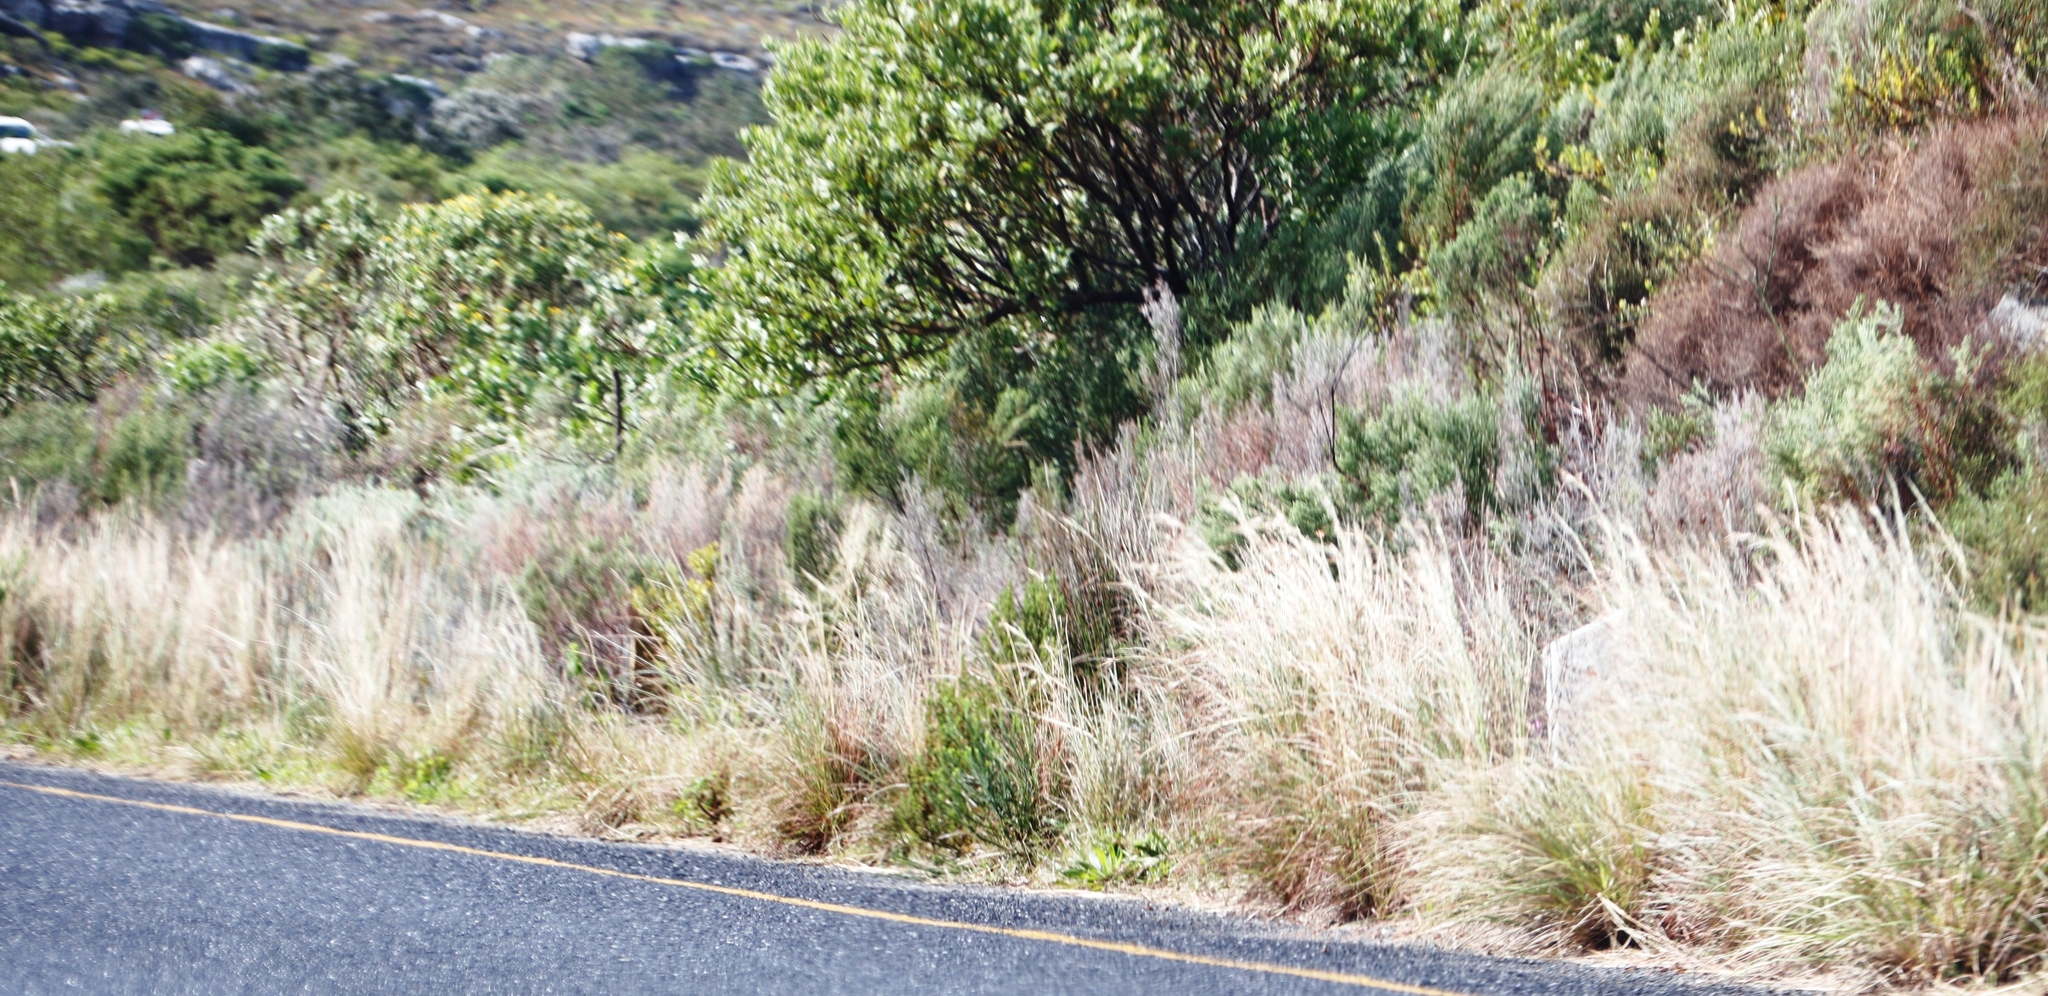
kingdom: Plantae
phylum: Tracheophyta
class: Liliopsida
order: Poales
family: Poaceae
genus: Hyparrhenia
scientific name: Hyparrhenia hirta
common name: Thatching grass
